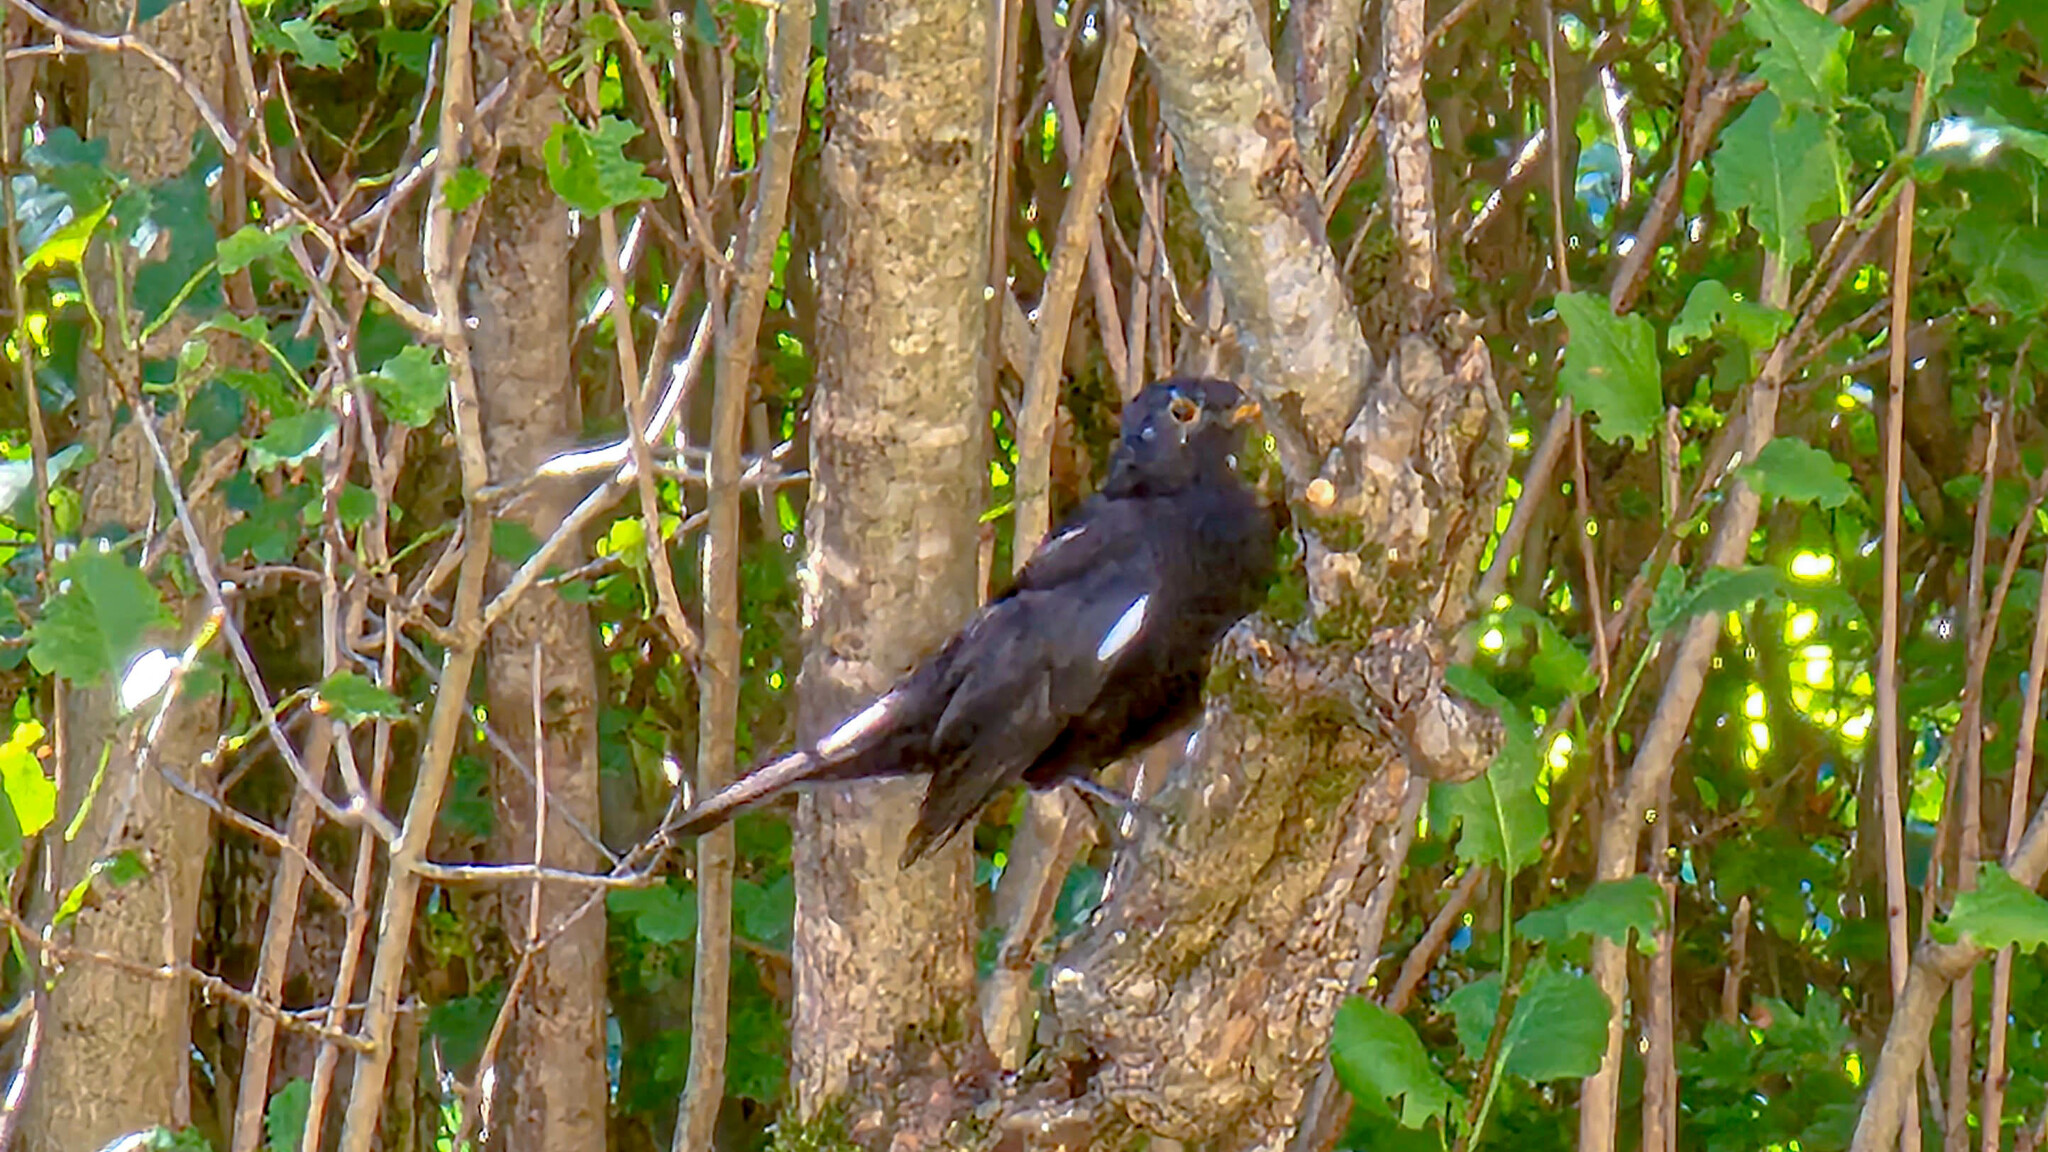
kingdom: Animalia
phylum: Chordata
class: Aves
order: Passeriformes
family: Turdidae
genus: Turdus
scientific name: Turdus merula
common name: Common blackbird
